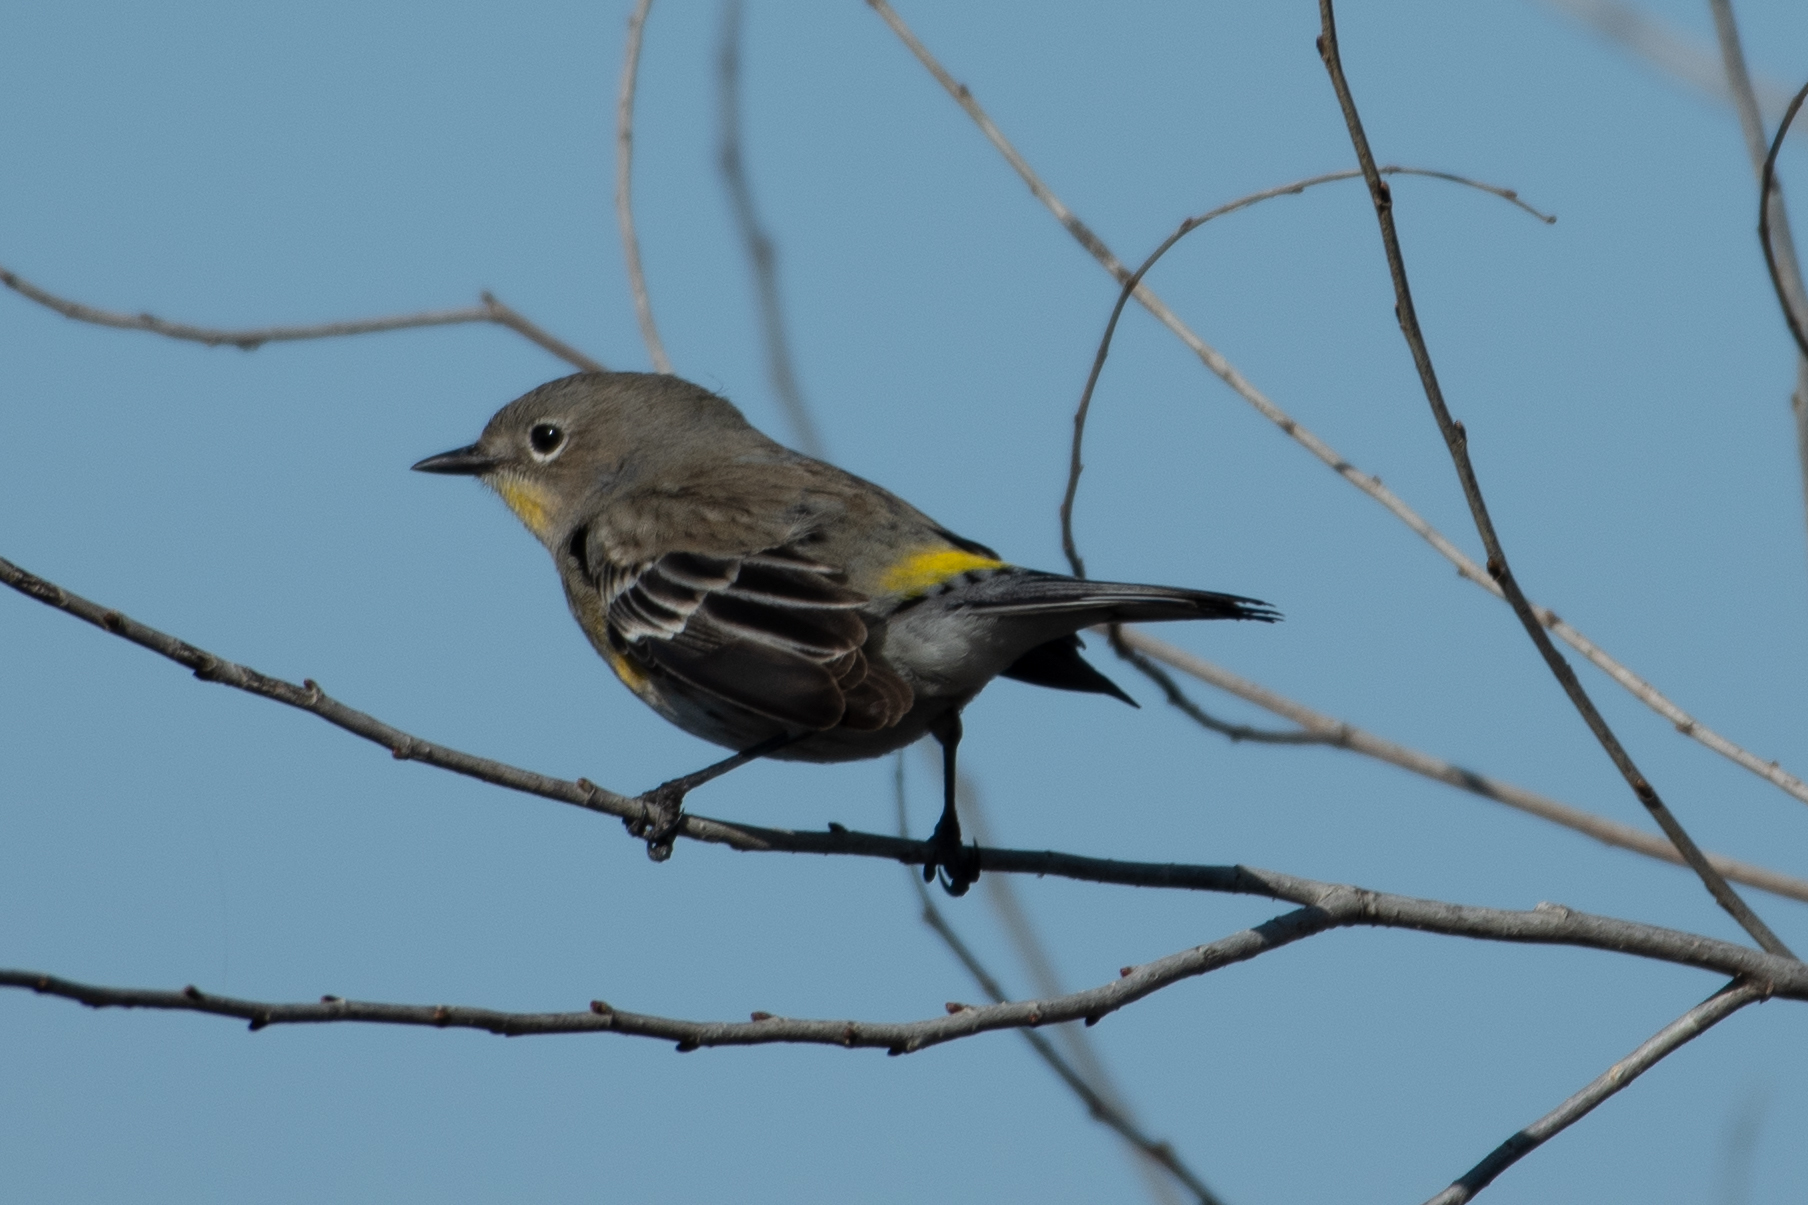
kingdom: Animalia
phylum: Chordata
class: Aves
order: Passeriformes
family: Parulidae
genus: Setophaga
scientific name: Setophaga coronata
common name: Myrtle warbler
